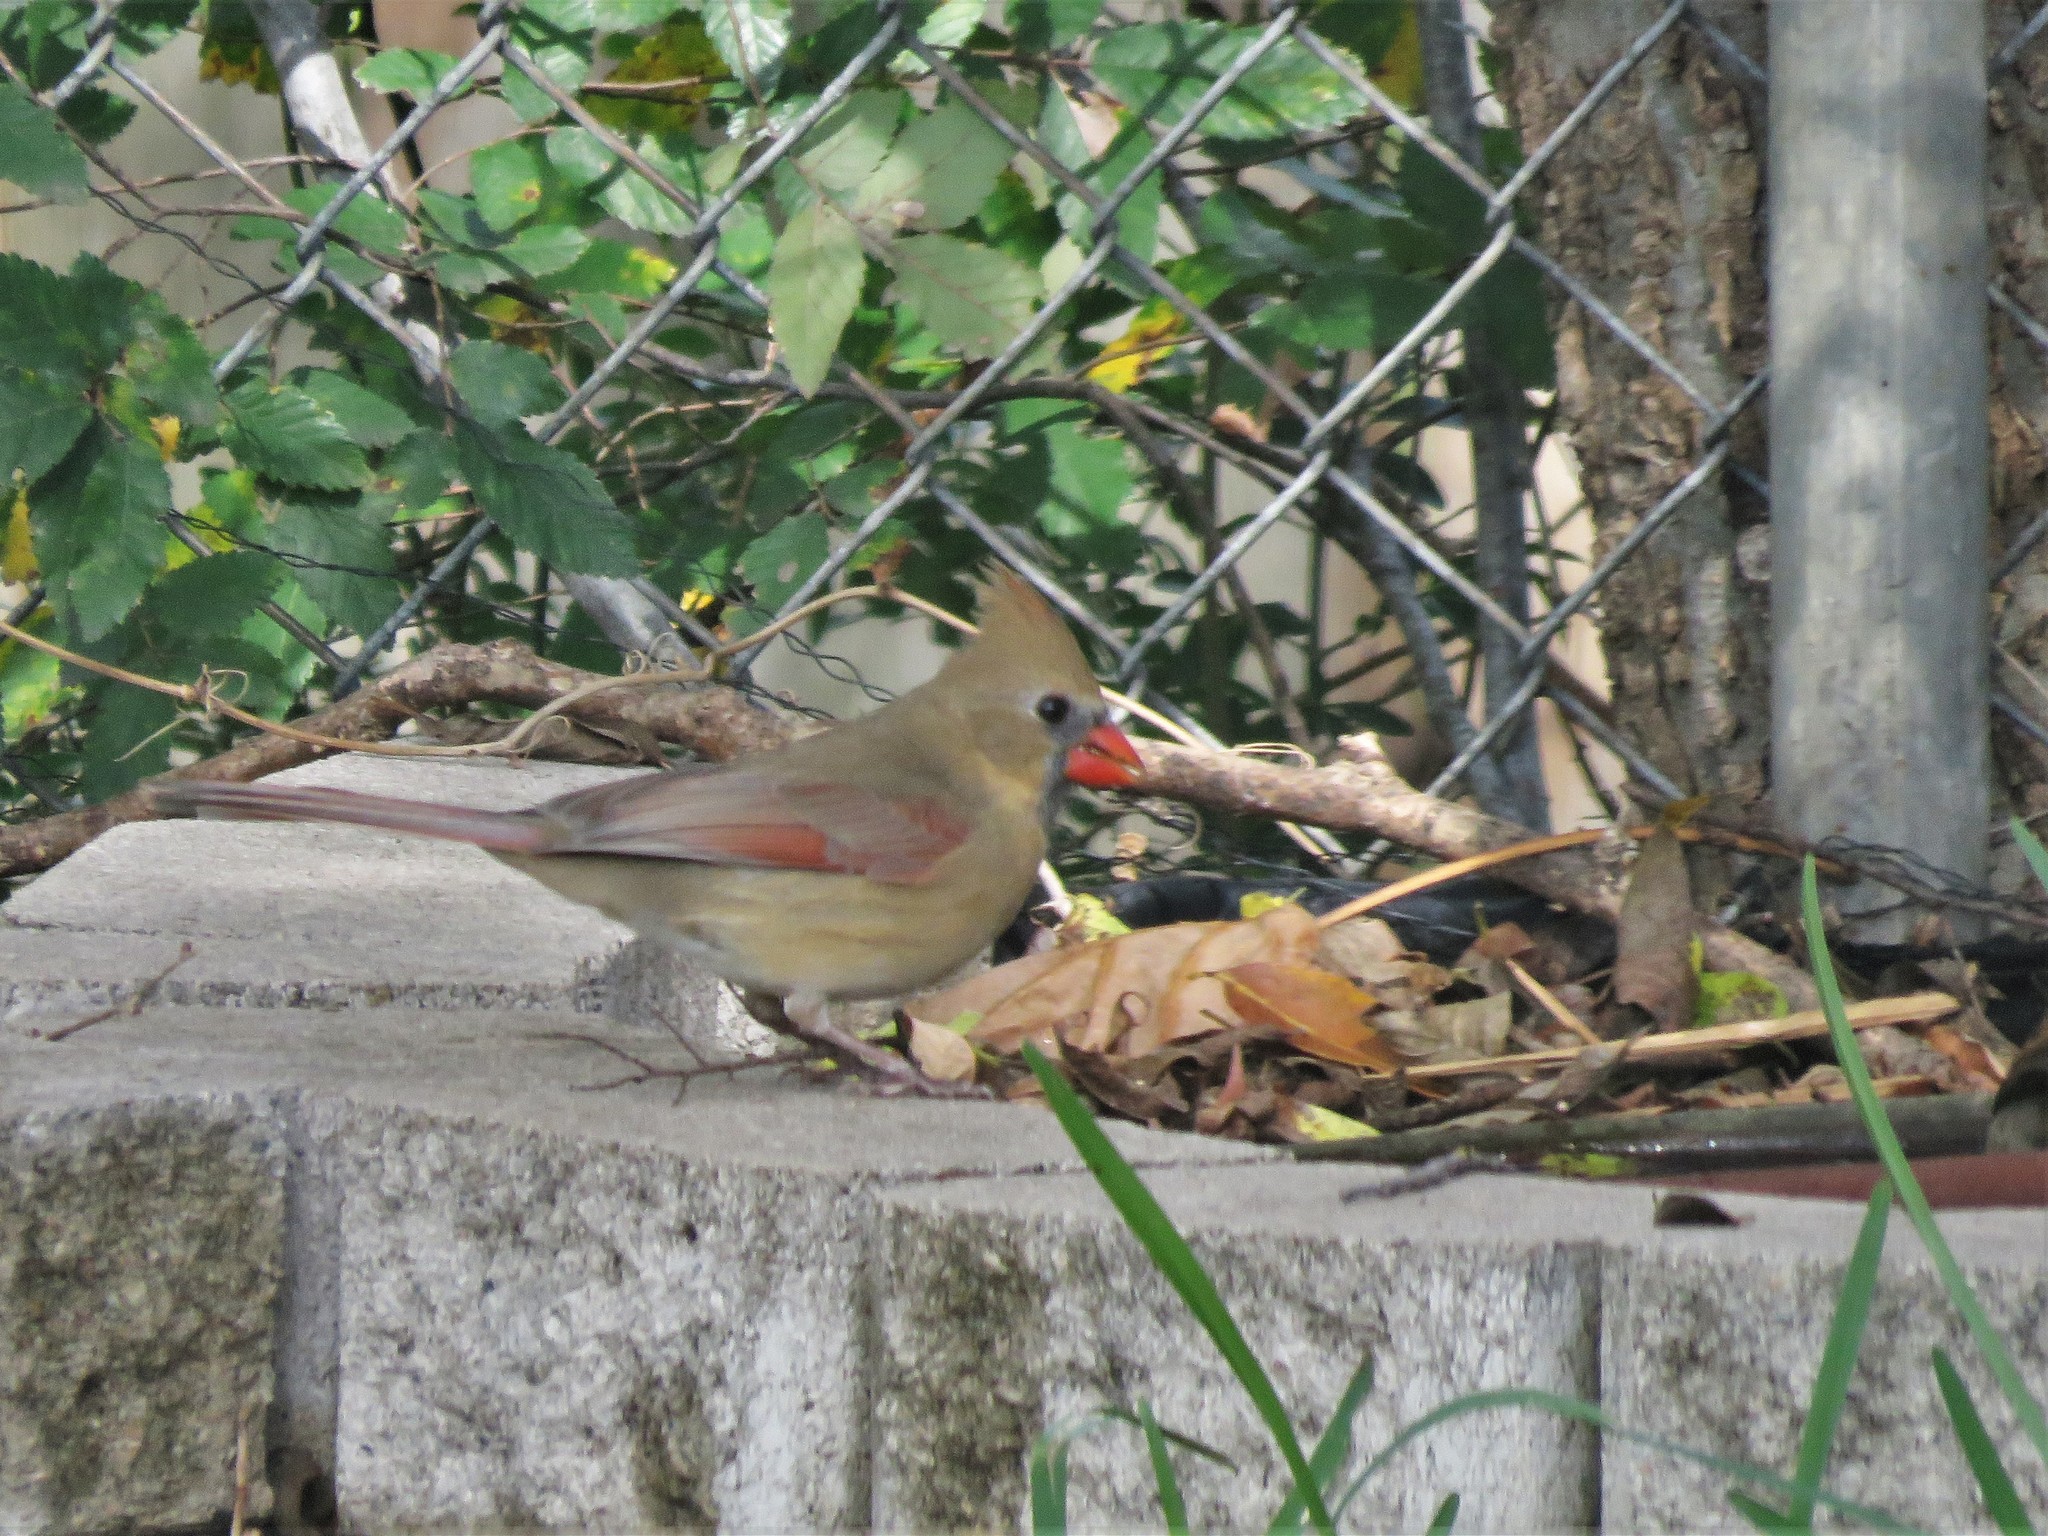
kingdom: Animalia
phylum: Chordata
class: Aves
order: Passeriformes
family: Cardinalidae
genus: Cardinalis
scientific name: Cardinalis cardinalis
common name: Northern cardinal
